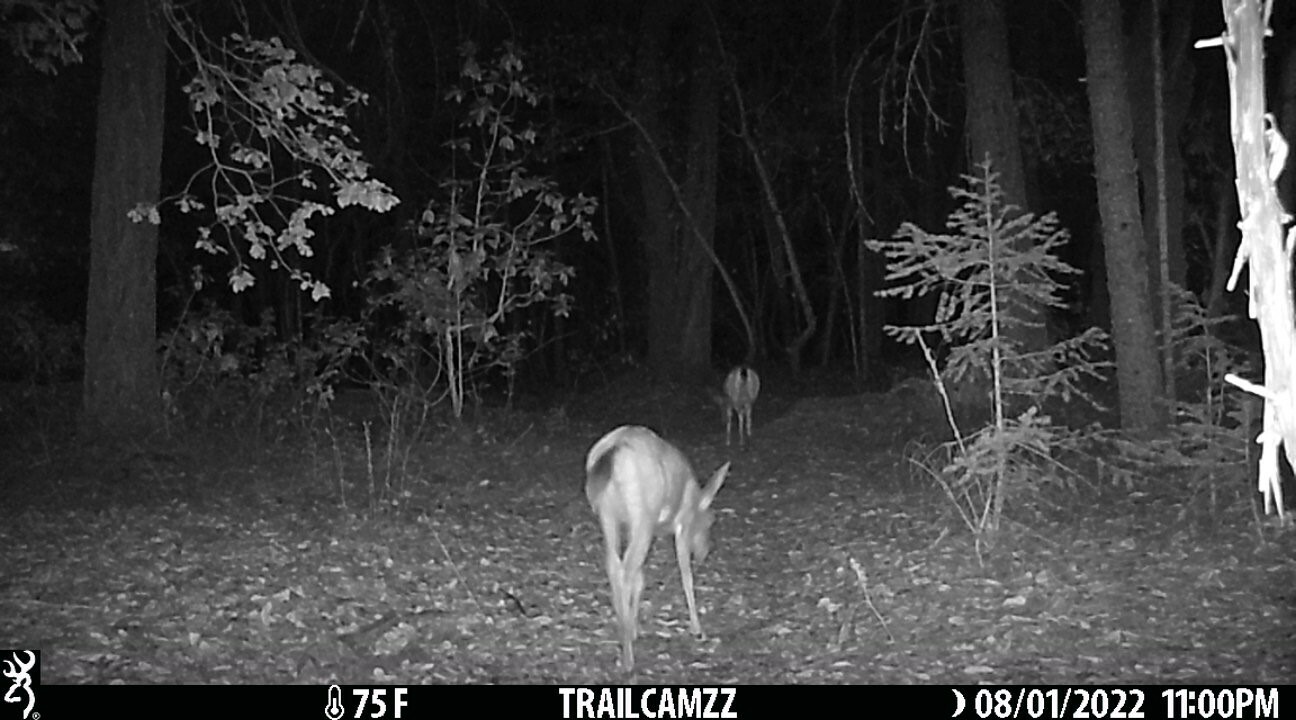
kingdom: Animalia
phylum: Chordata
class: Mammalia
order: Artiodactyla
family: Cervidae
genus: Odocoileus
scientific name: Odocoileus hemionus
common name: Mule deer
